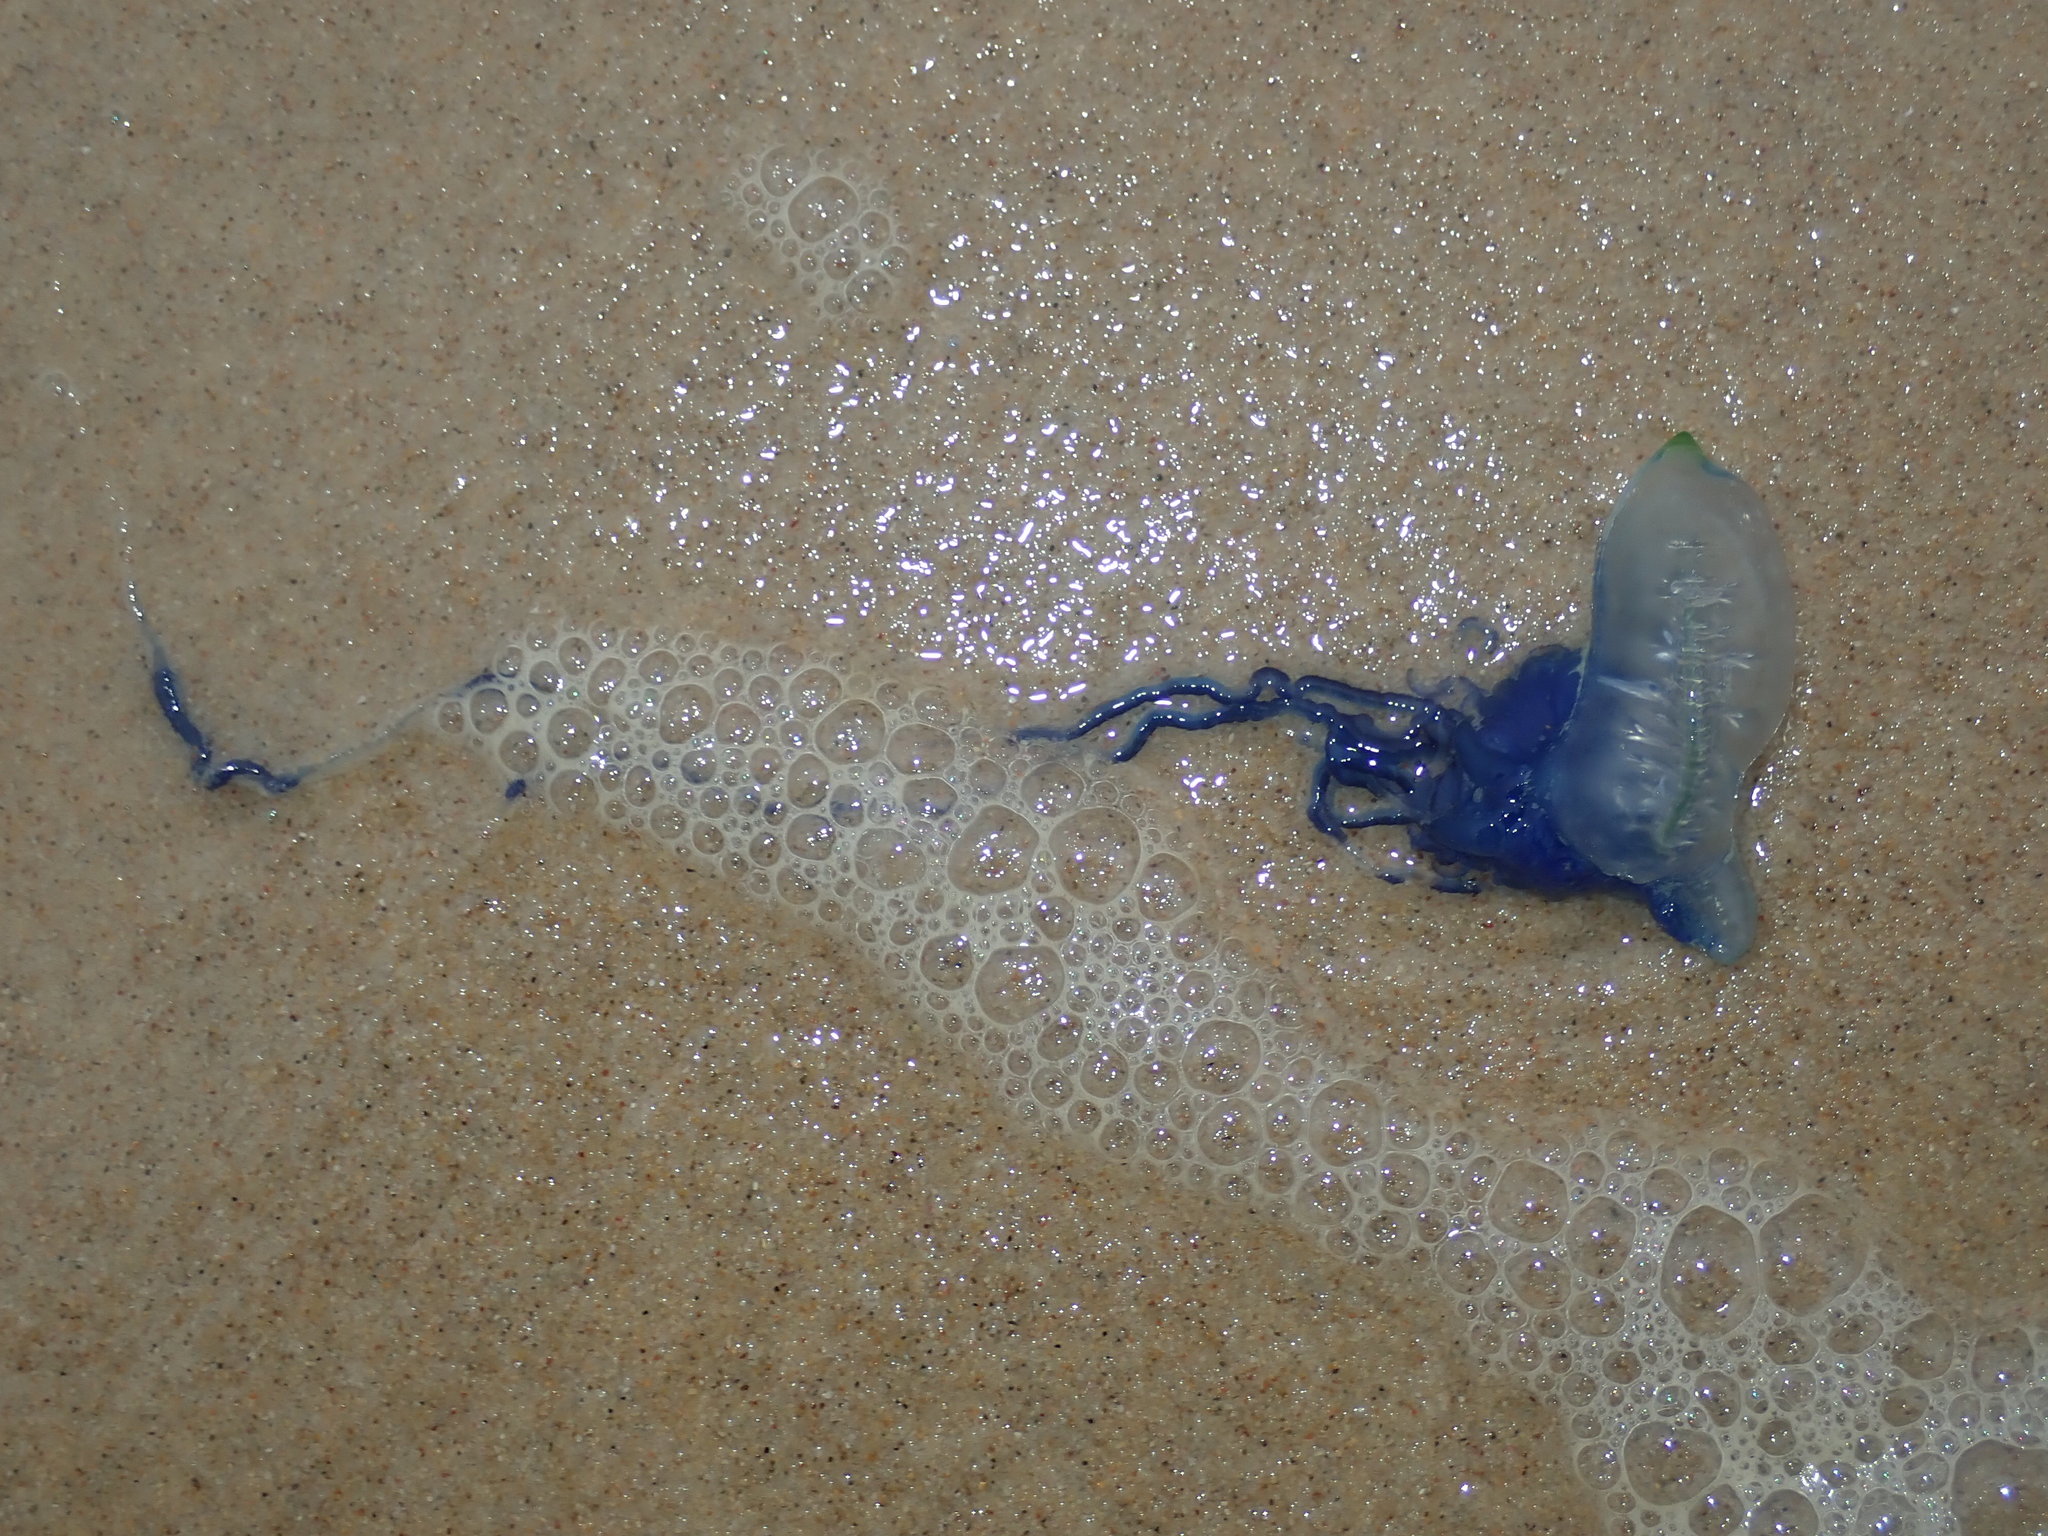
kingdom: Animalia
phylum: Cnidaria
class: Hydrozoa
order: Siphonophorae
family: Physaliidae
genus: Physalia
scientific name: Physalia physalis
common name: Portuguese man-of-war
